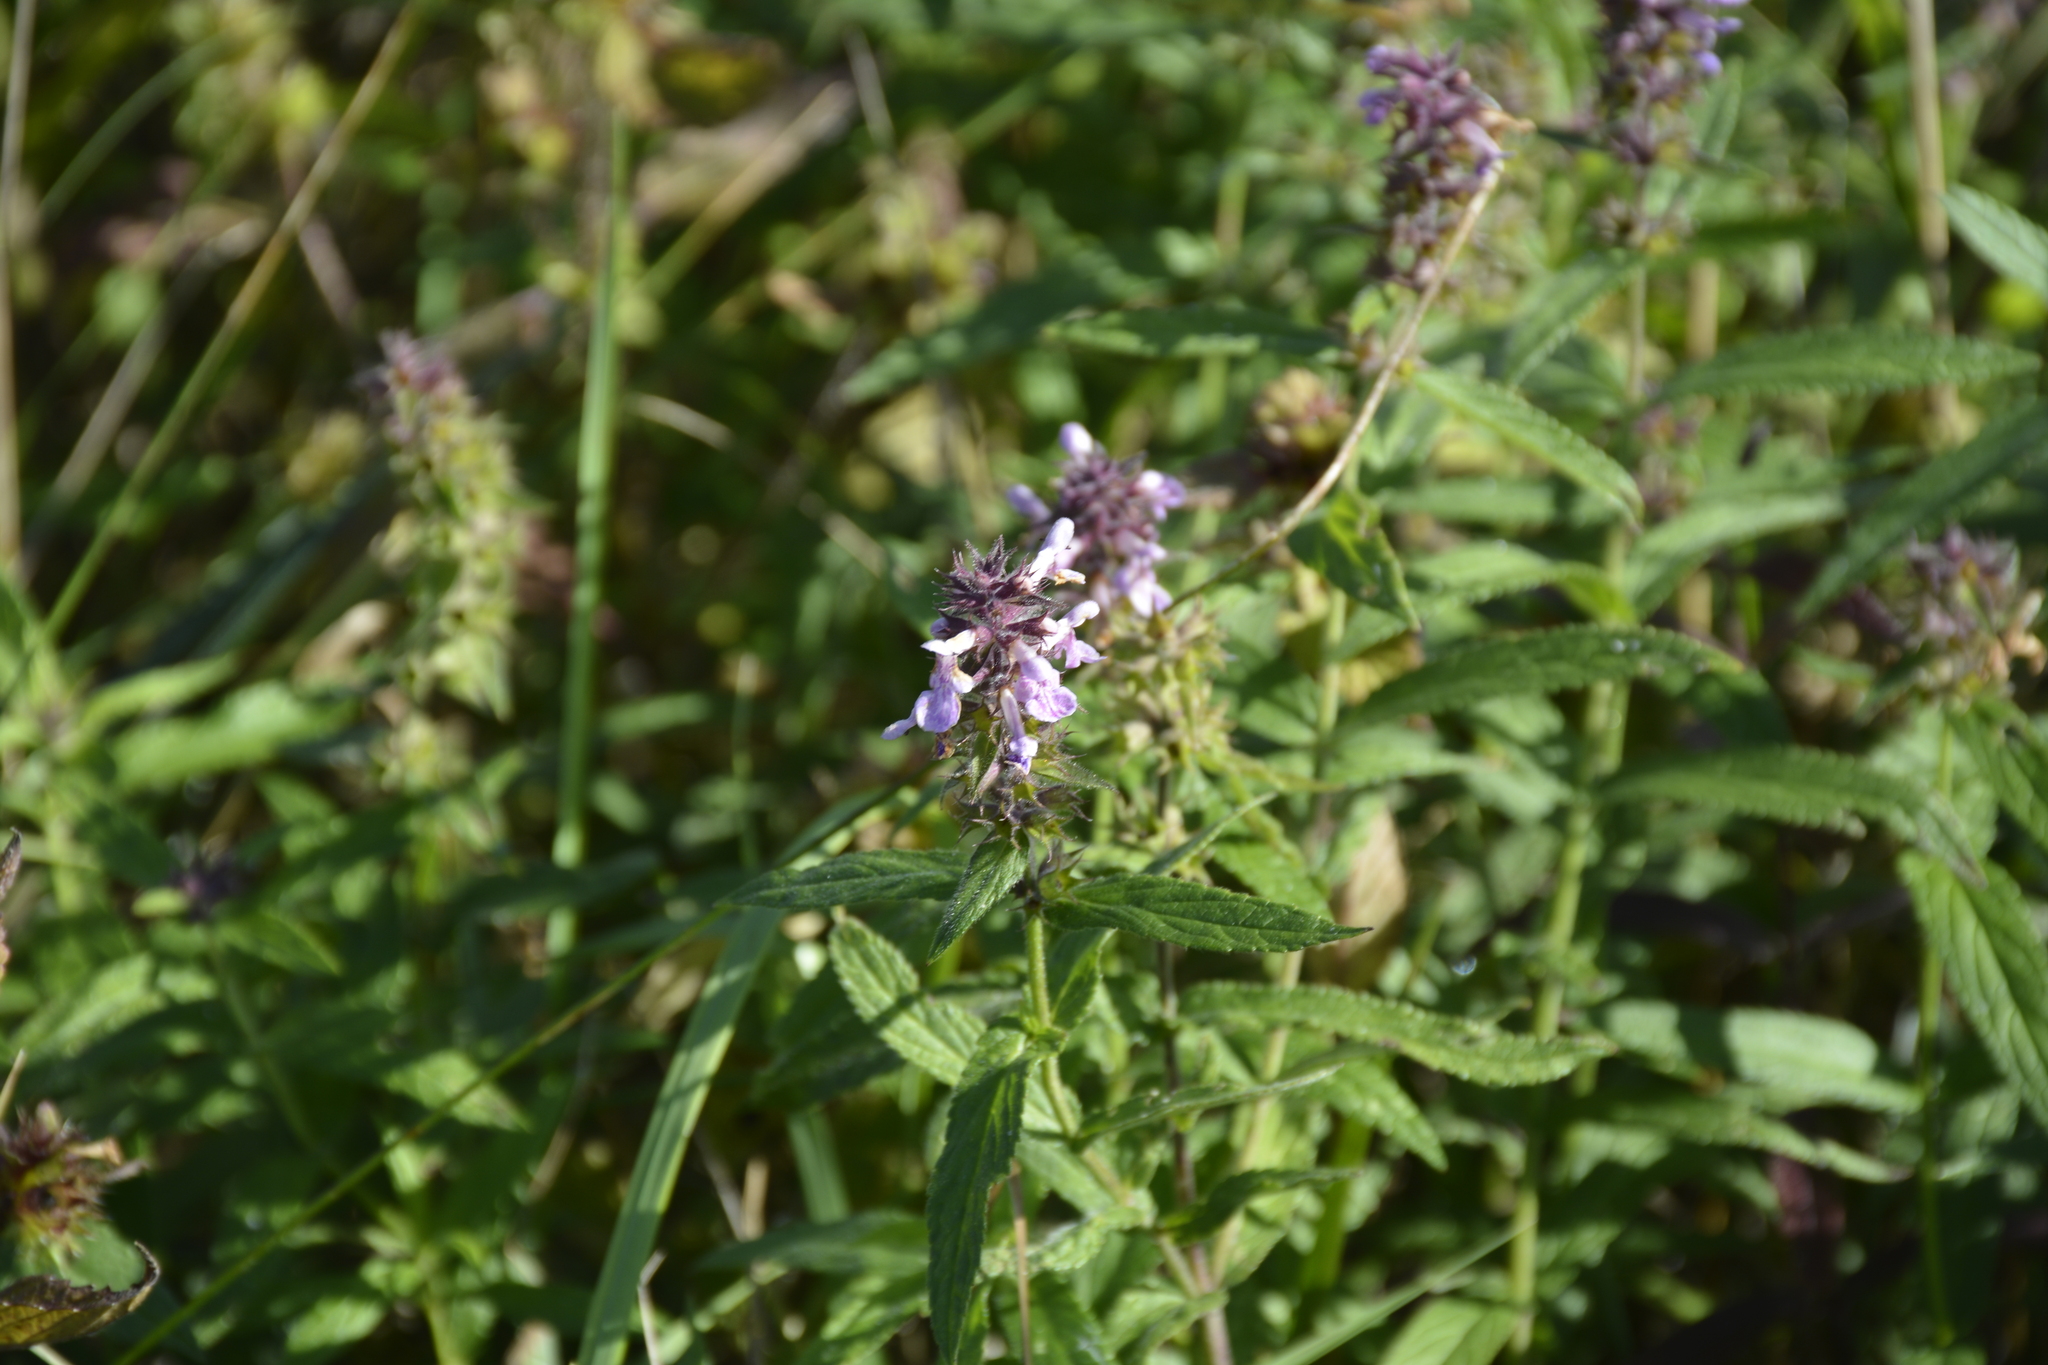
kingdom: Plantae
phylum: Tracheophyta
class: Magnoliopsida
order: Lamiales
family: Lamiaceae
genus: Stachys
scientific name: Stachys palustris
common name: Marsh woundwort
